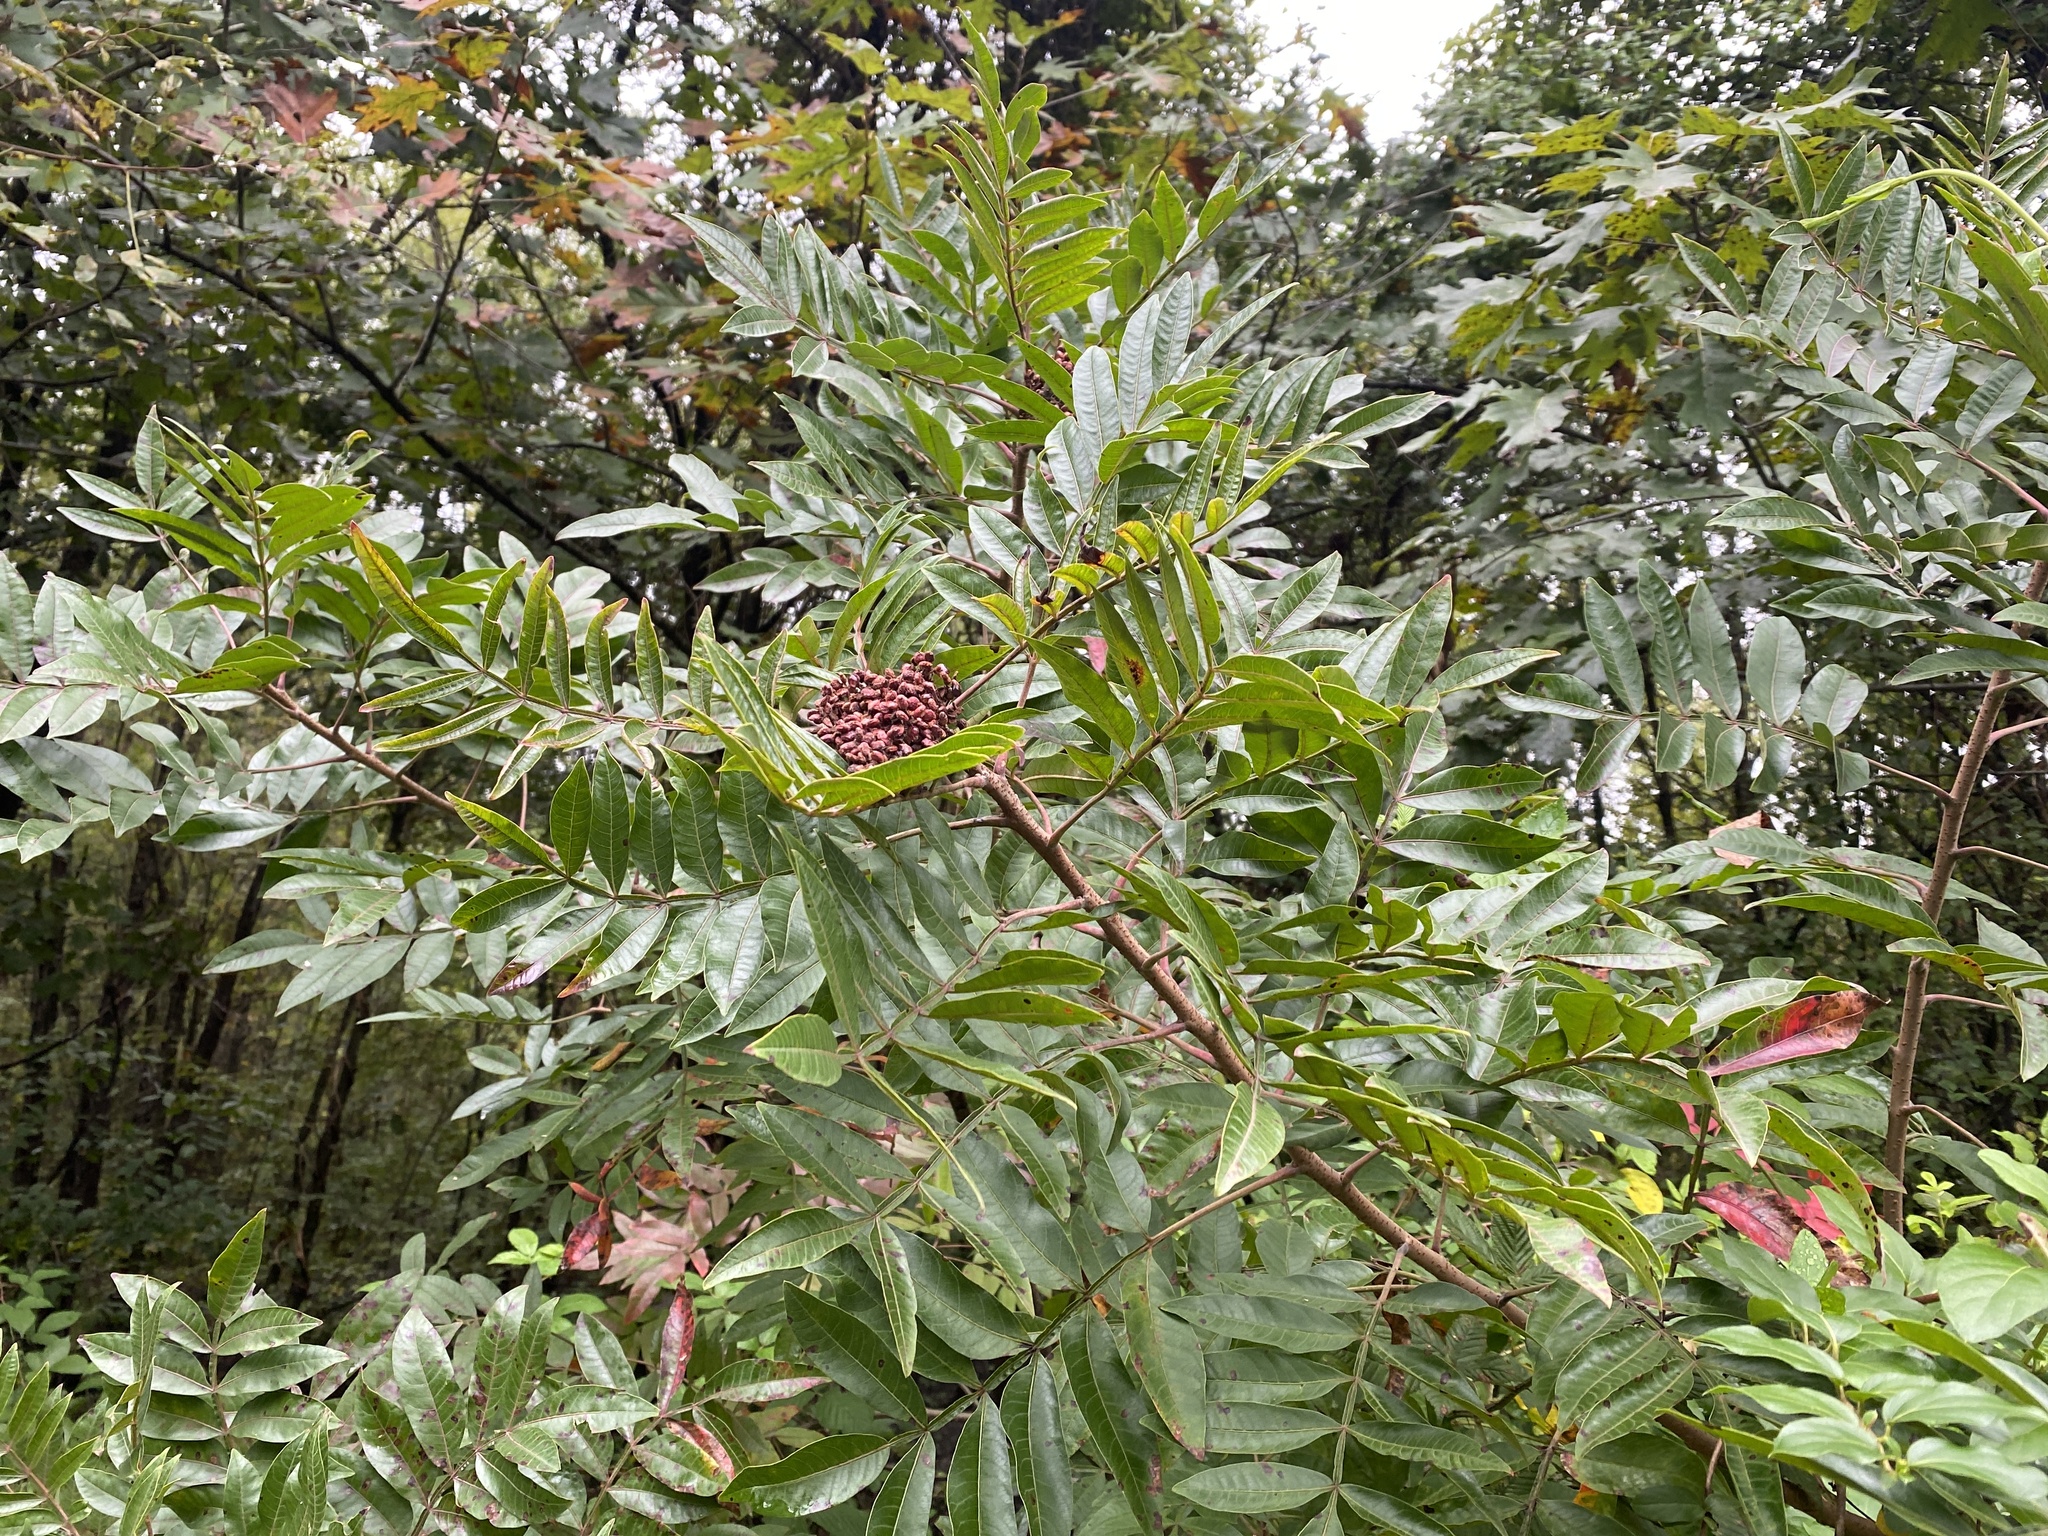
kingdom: Plantae
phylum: Tracheophyta
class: Magnoliopsida
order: Sapindales
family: Anacardiaceae
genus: Rhus
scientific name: Rhus copallina
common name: Shining sumac
